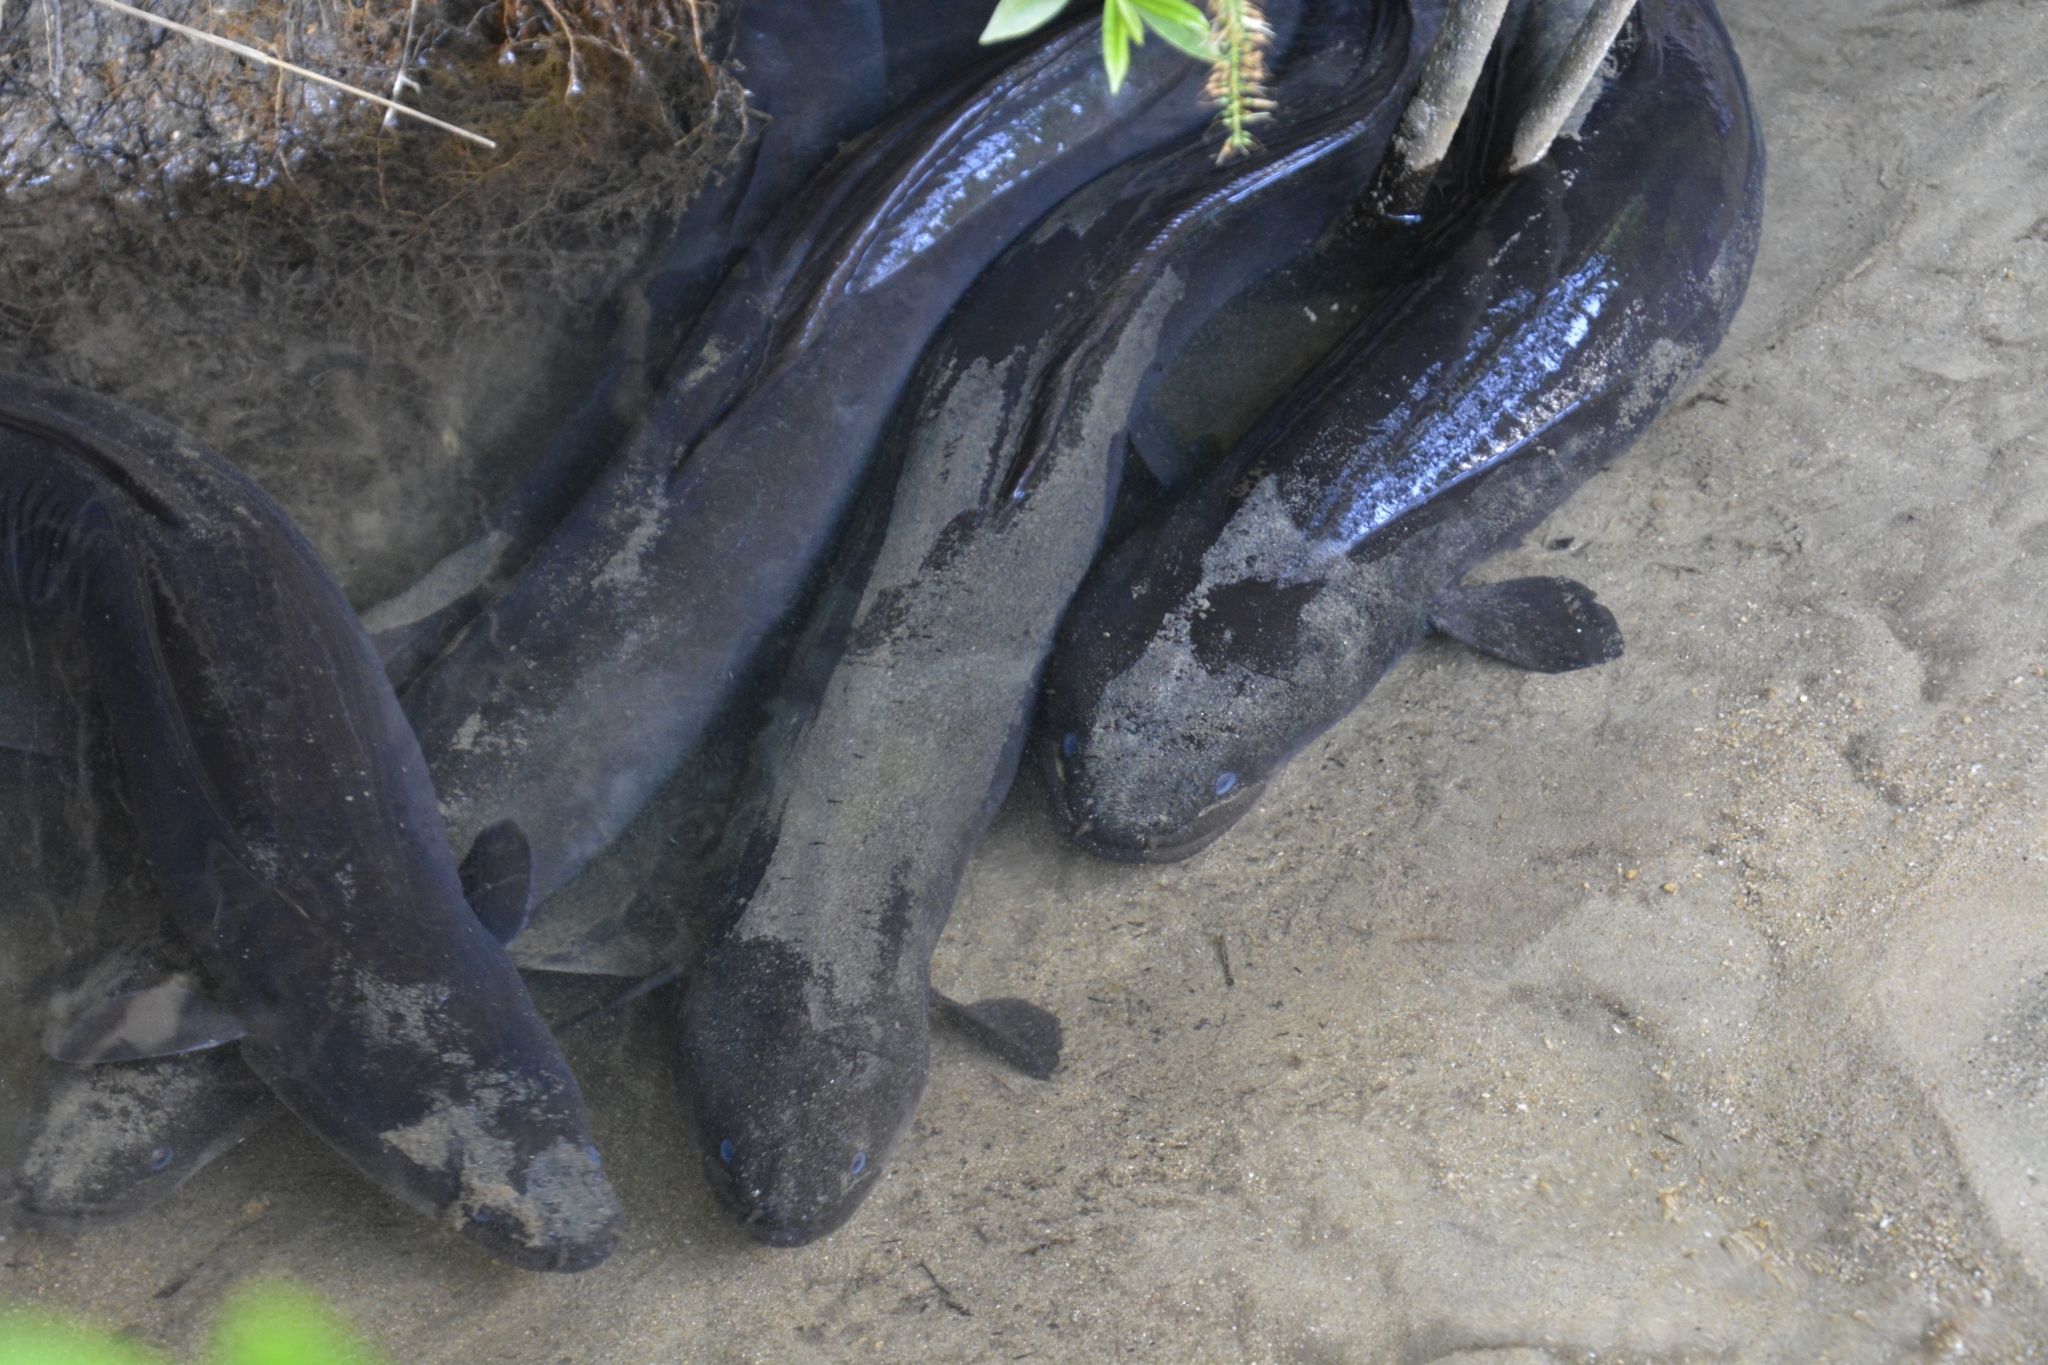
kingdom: Animalia
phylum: Chordata
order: Anguilliformes
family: Anguillidae
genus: Anguilla
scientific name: Anguilla dieffenbachii
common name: New zealand longfin eel
